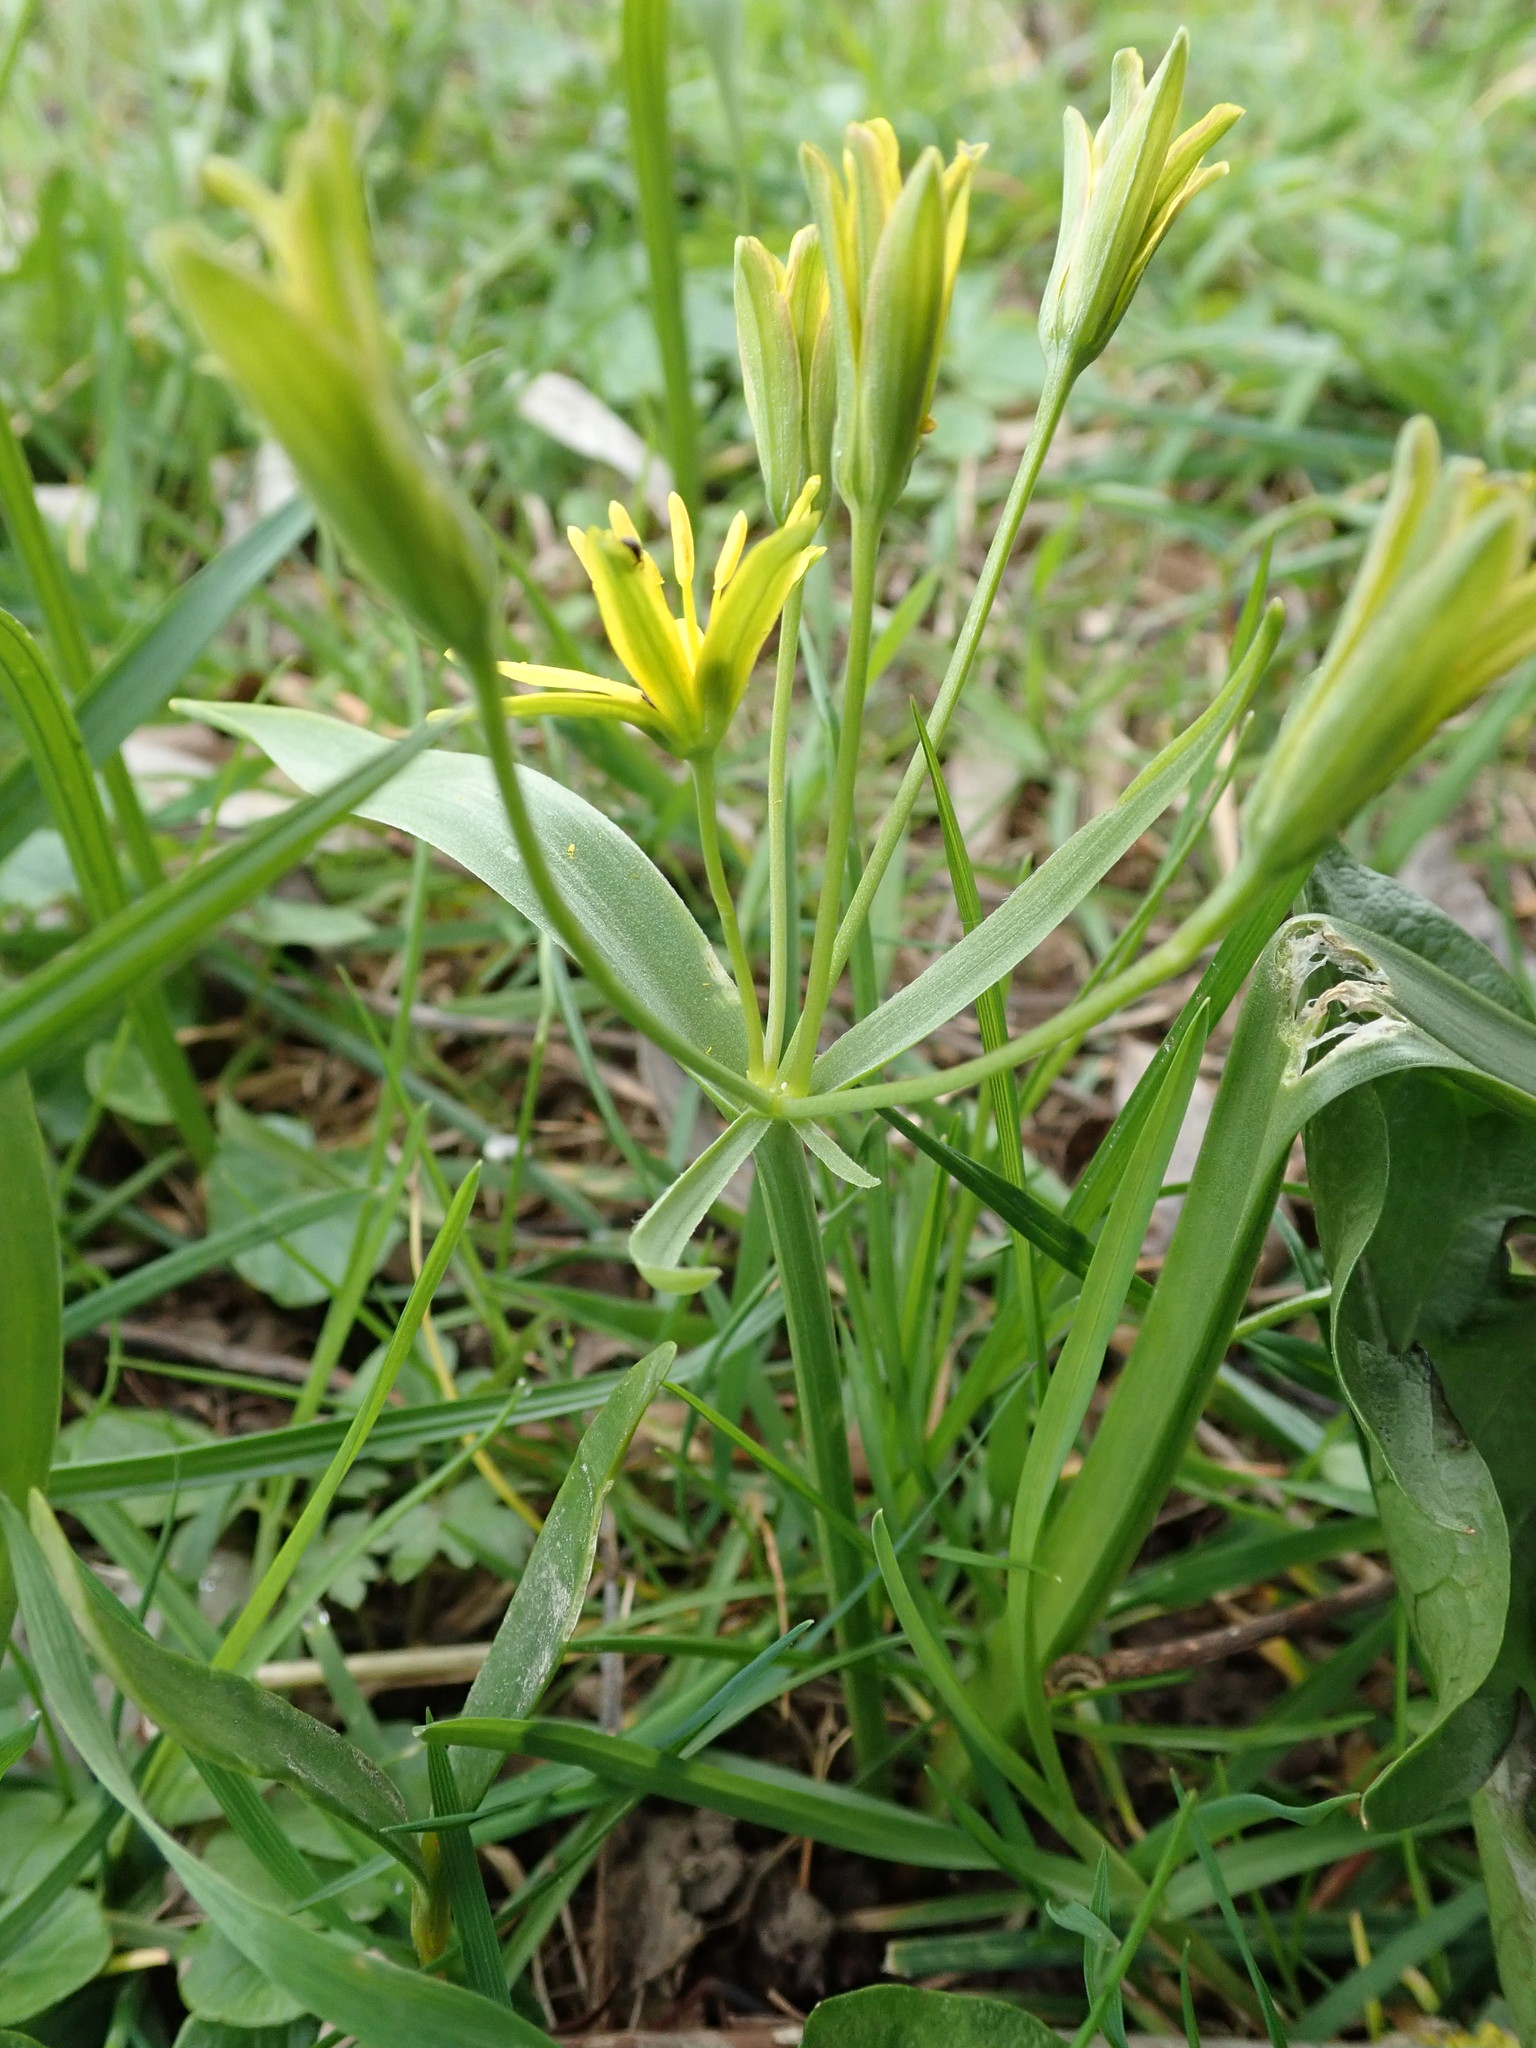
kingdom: Plantae
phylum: Tracheophyta
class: Liliopsida
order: Liliales
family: Liliaceae
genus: Gagea
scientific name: Gagea lutea
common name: Yellow star-of-bethlehem
